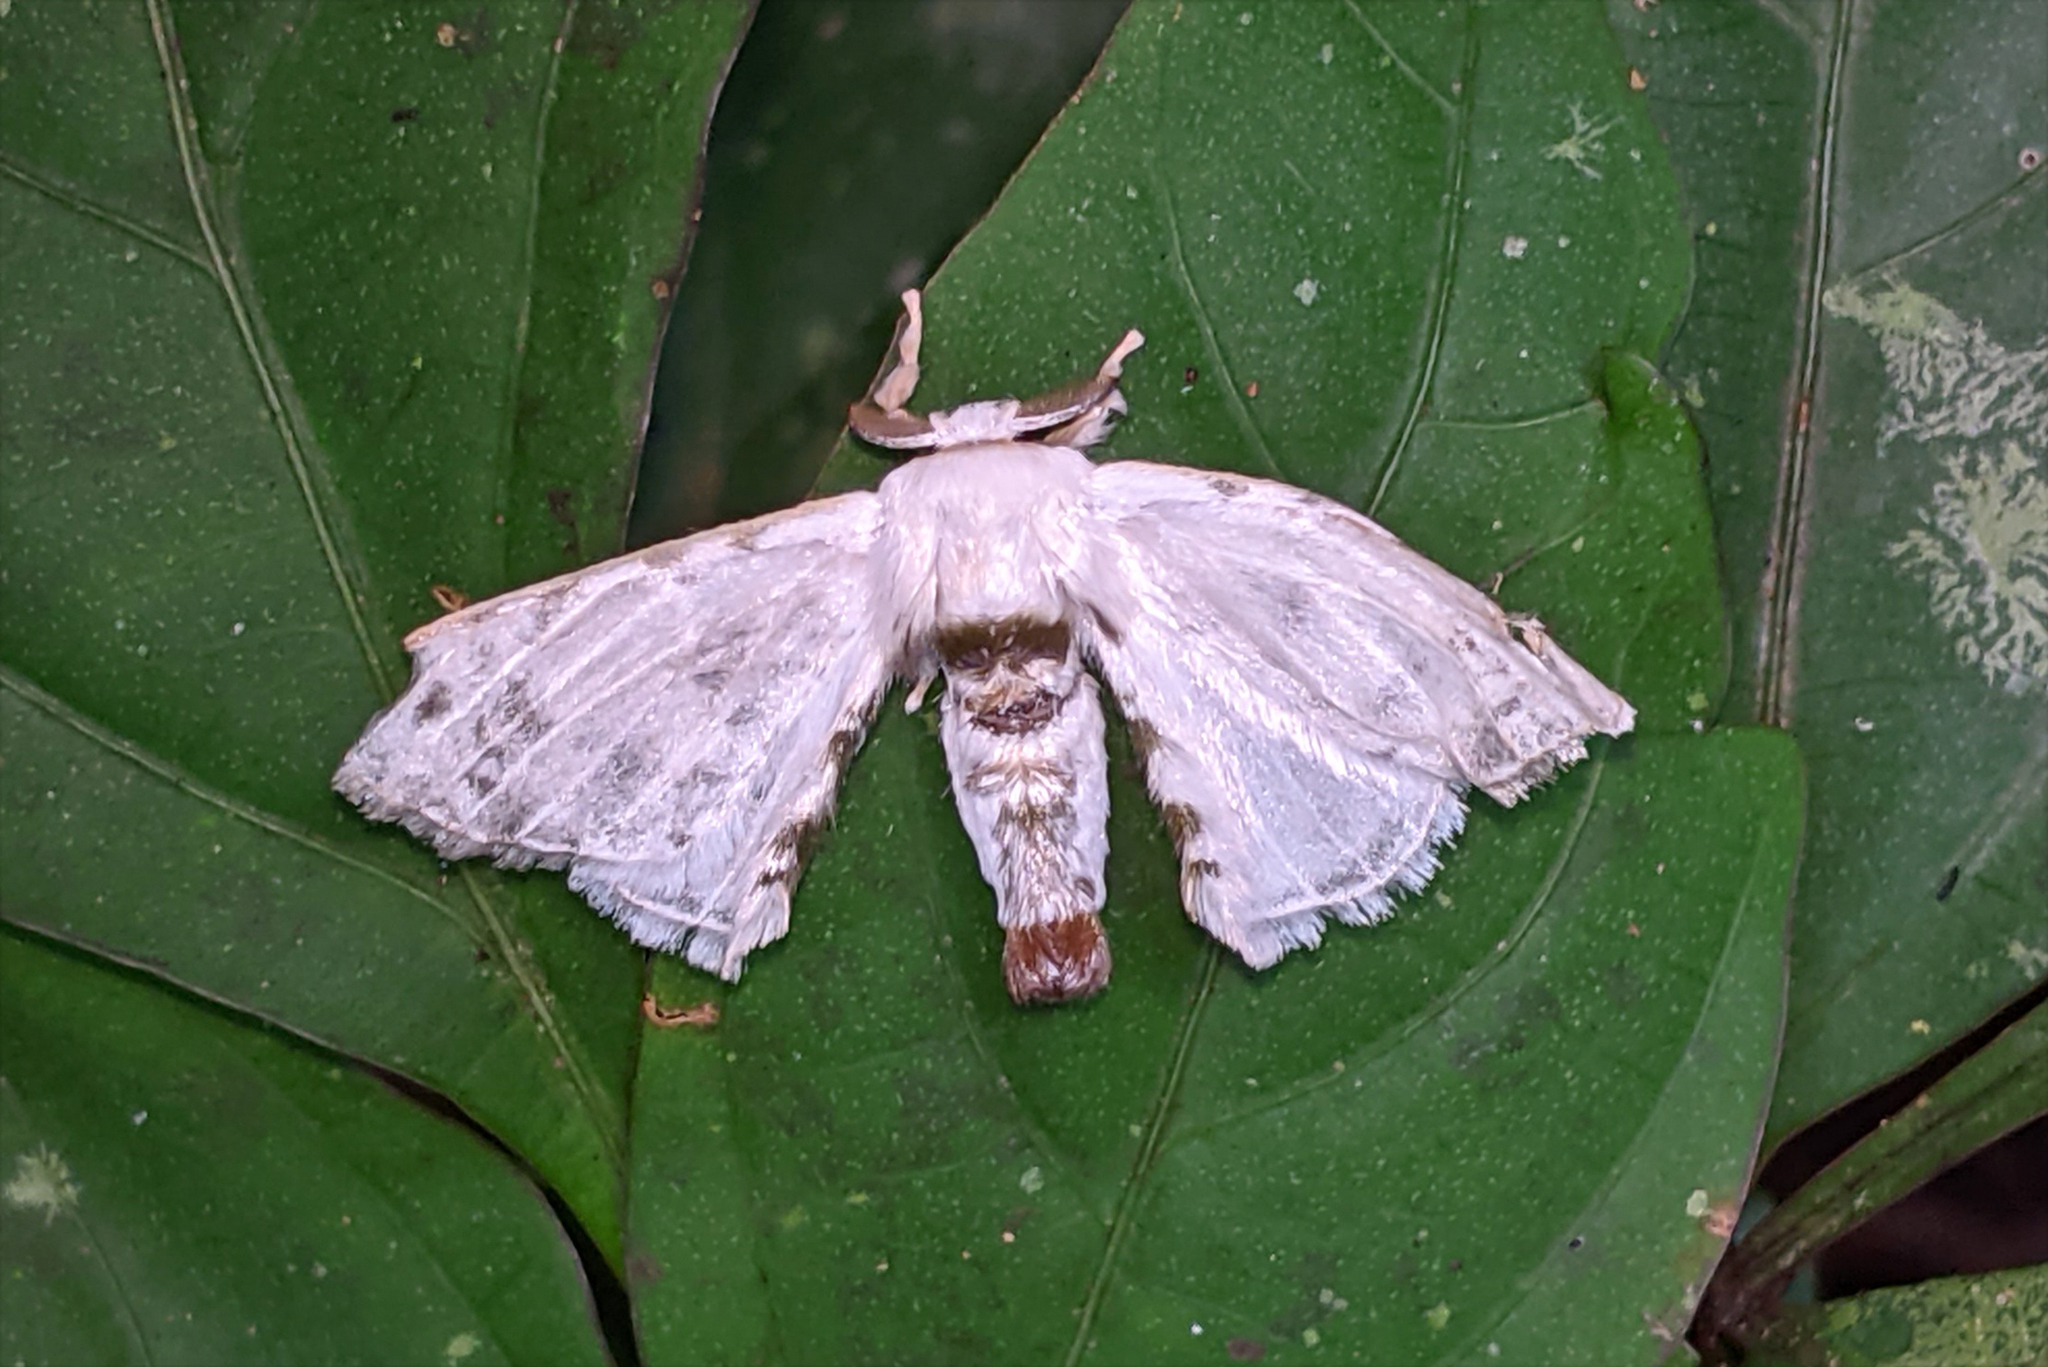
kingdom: Animalia
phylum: Arthropoda
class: Insecta
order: Lepidoptera
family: Bombycidae
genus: Colla
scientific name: Colla opalifera
